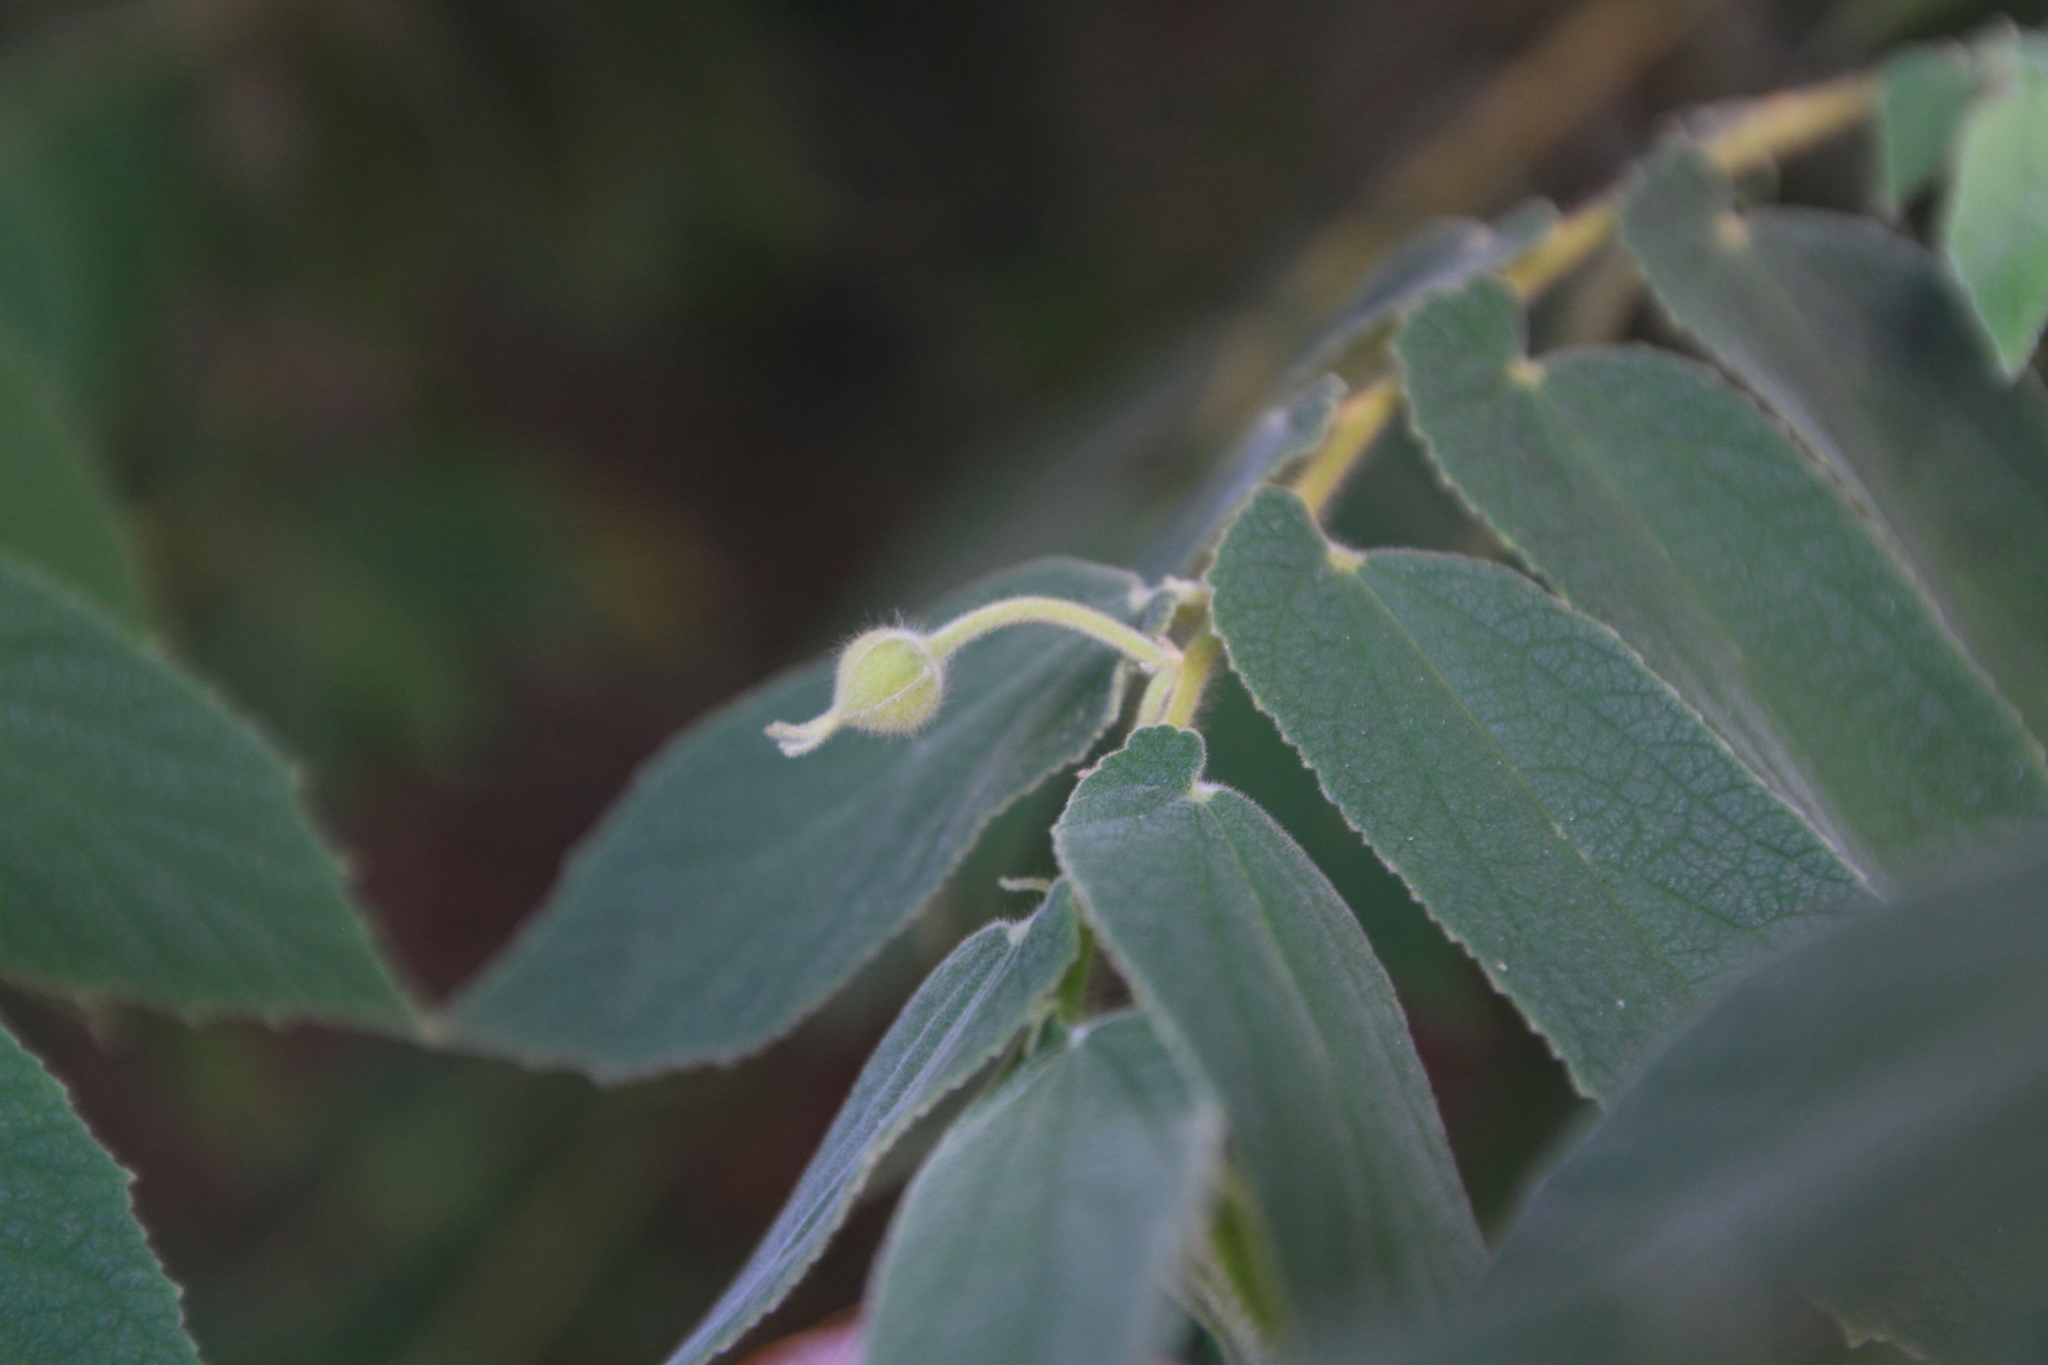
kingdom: Plantae
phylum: Tracheophyta
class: Magnoliopsida
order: Malvales
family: Muntingiaceae
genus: Muntingia
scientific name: Muntingia calabura
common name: Strawberrytree
